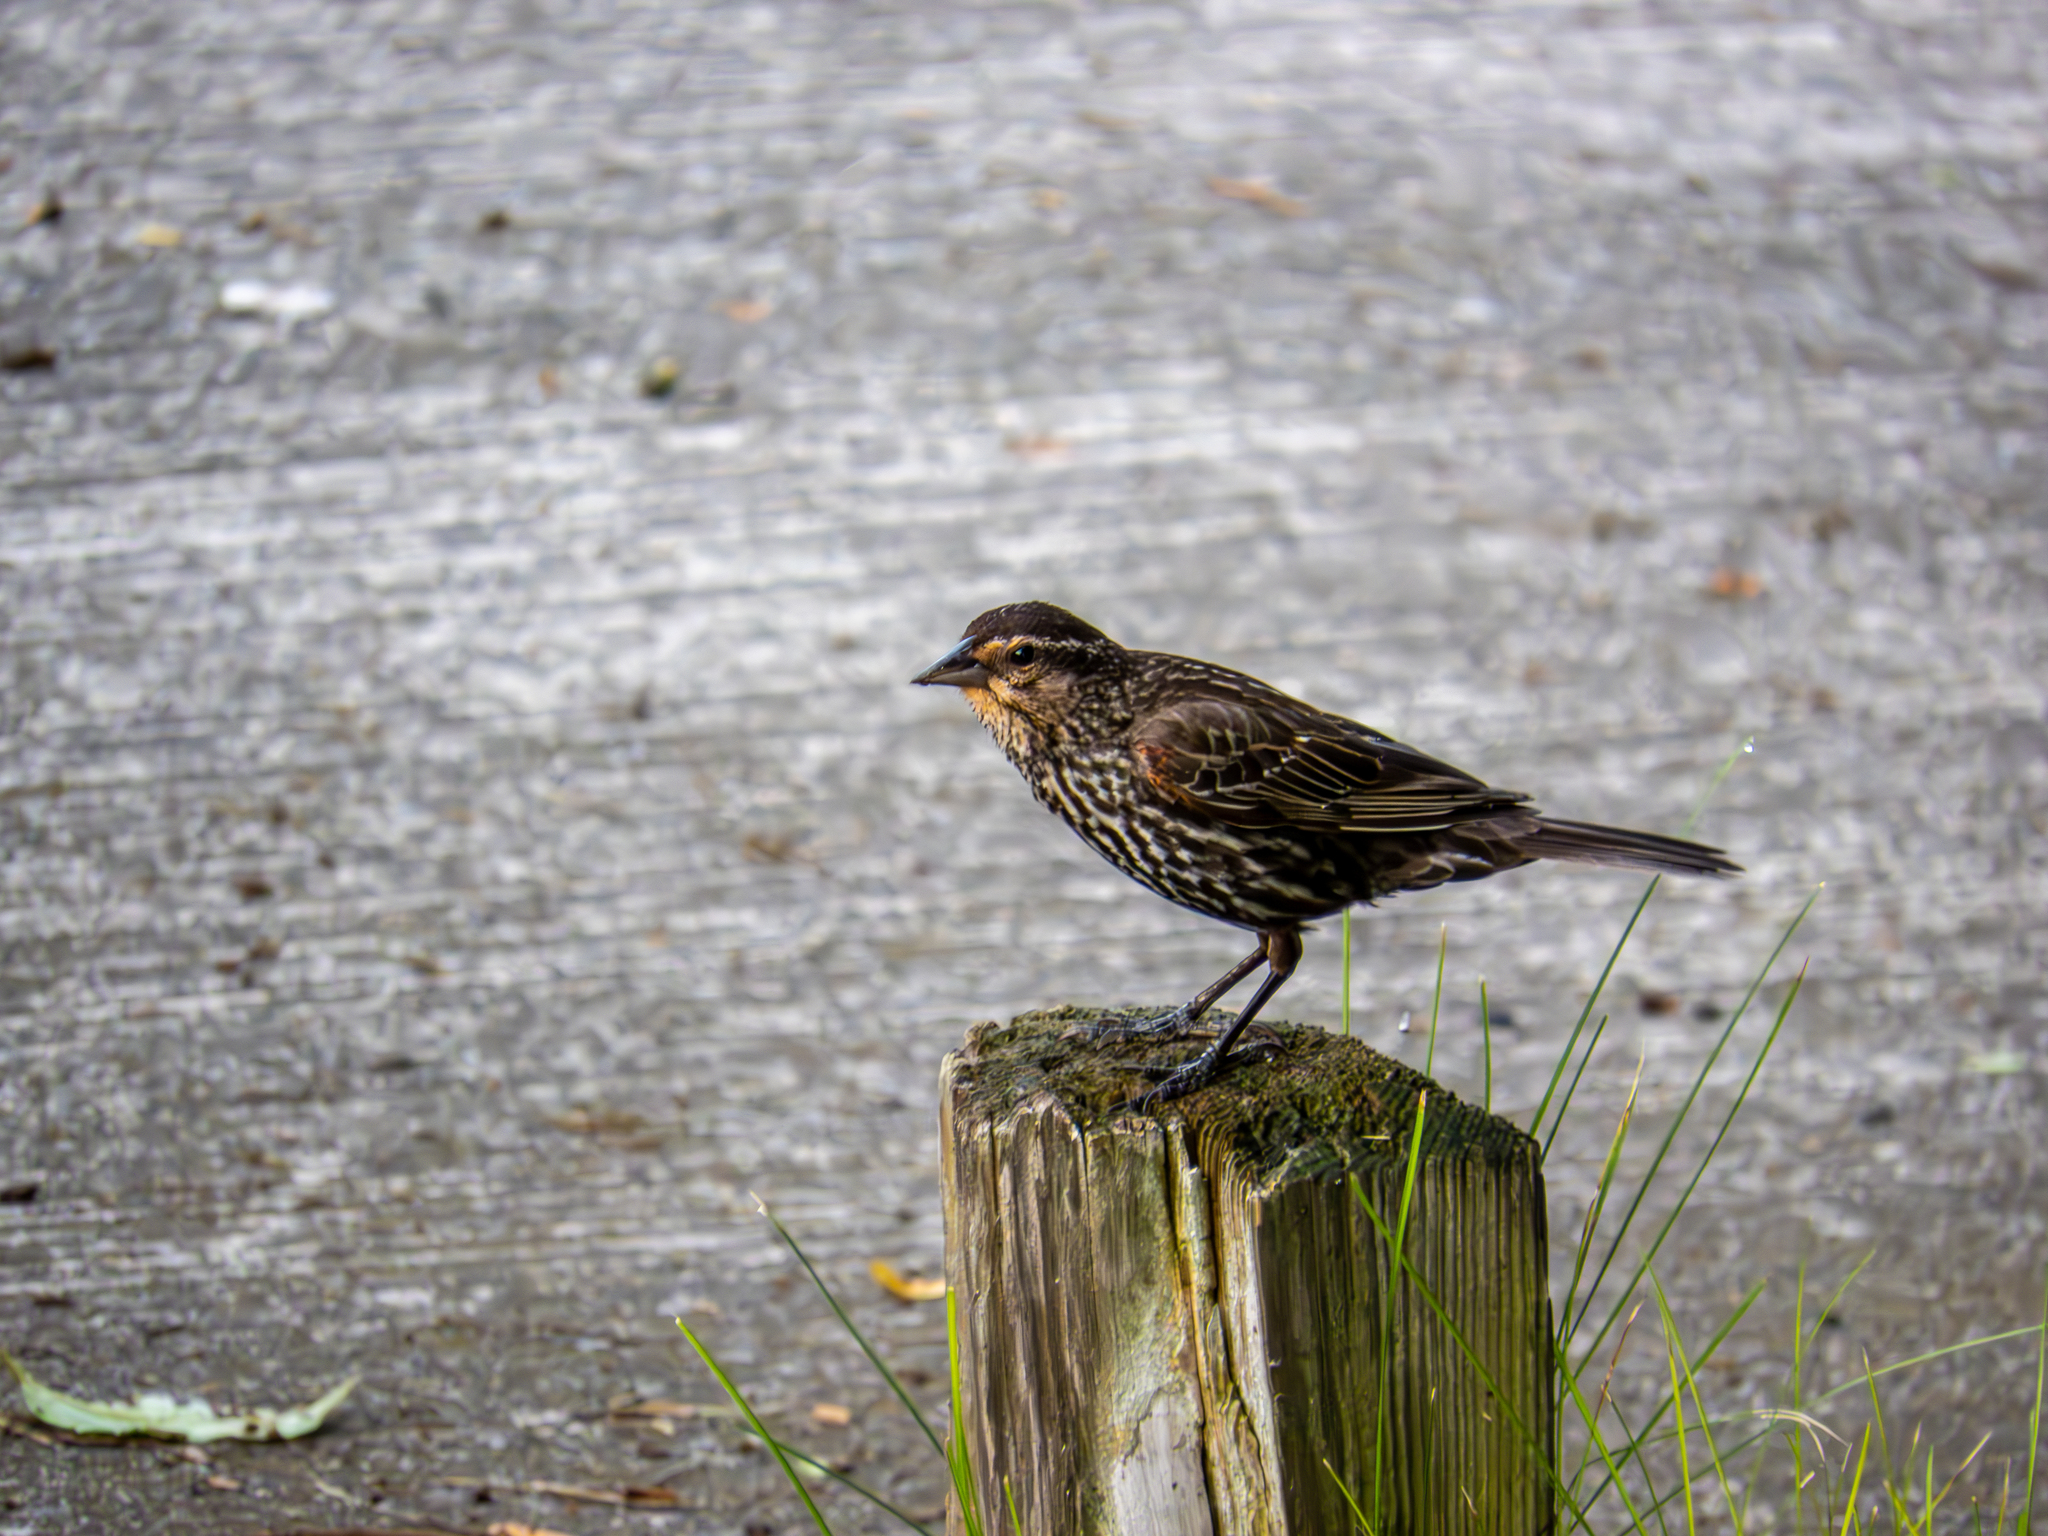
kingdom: Animalia
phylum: Chordata
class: Aves
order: Passeriformes
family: Icteridae
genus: Agelaius
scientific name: Agelaius phoeniceus
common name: Red-winged blackbird
